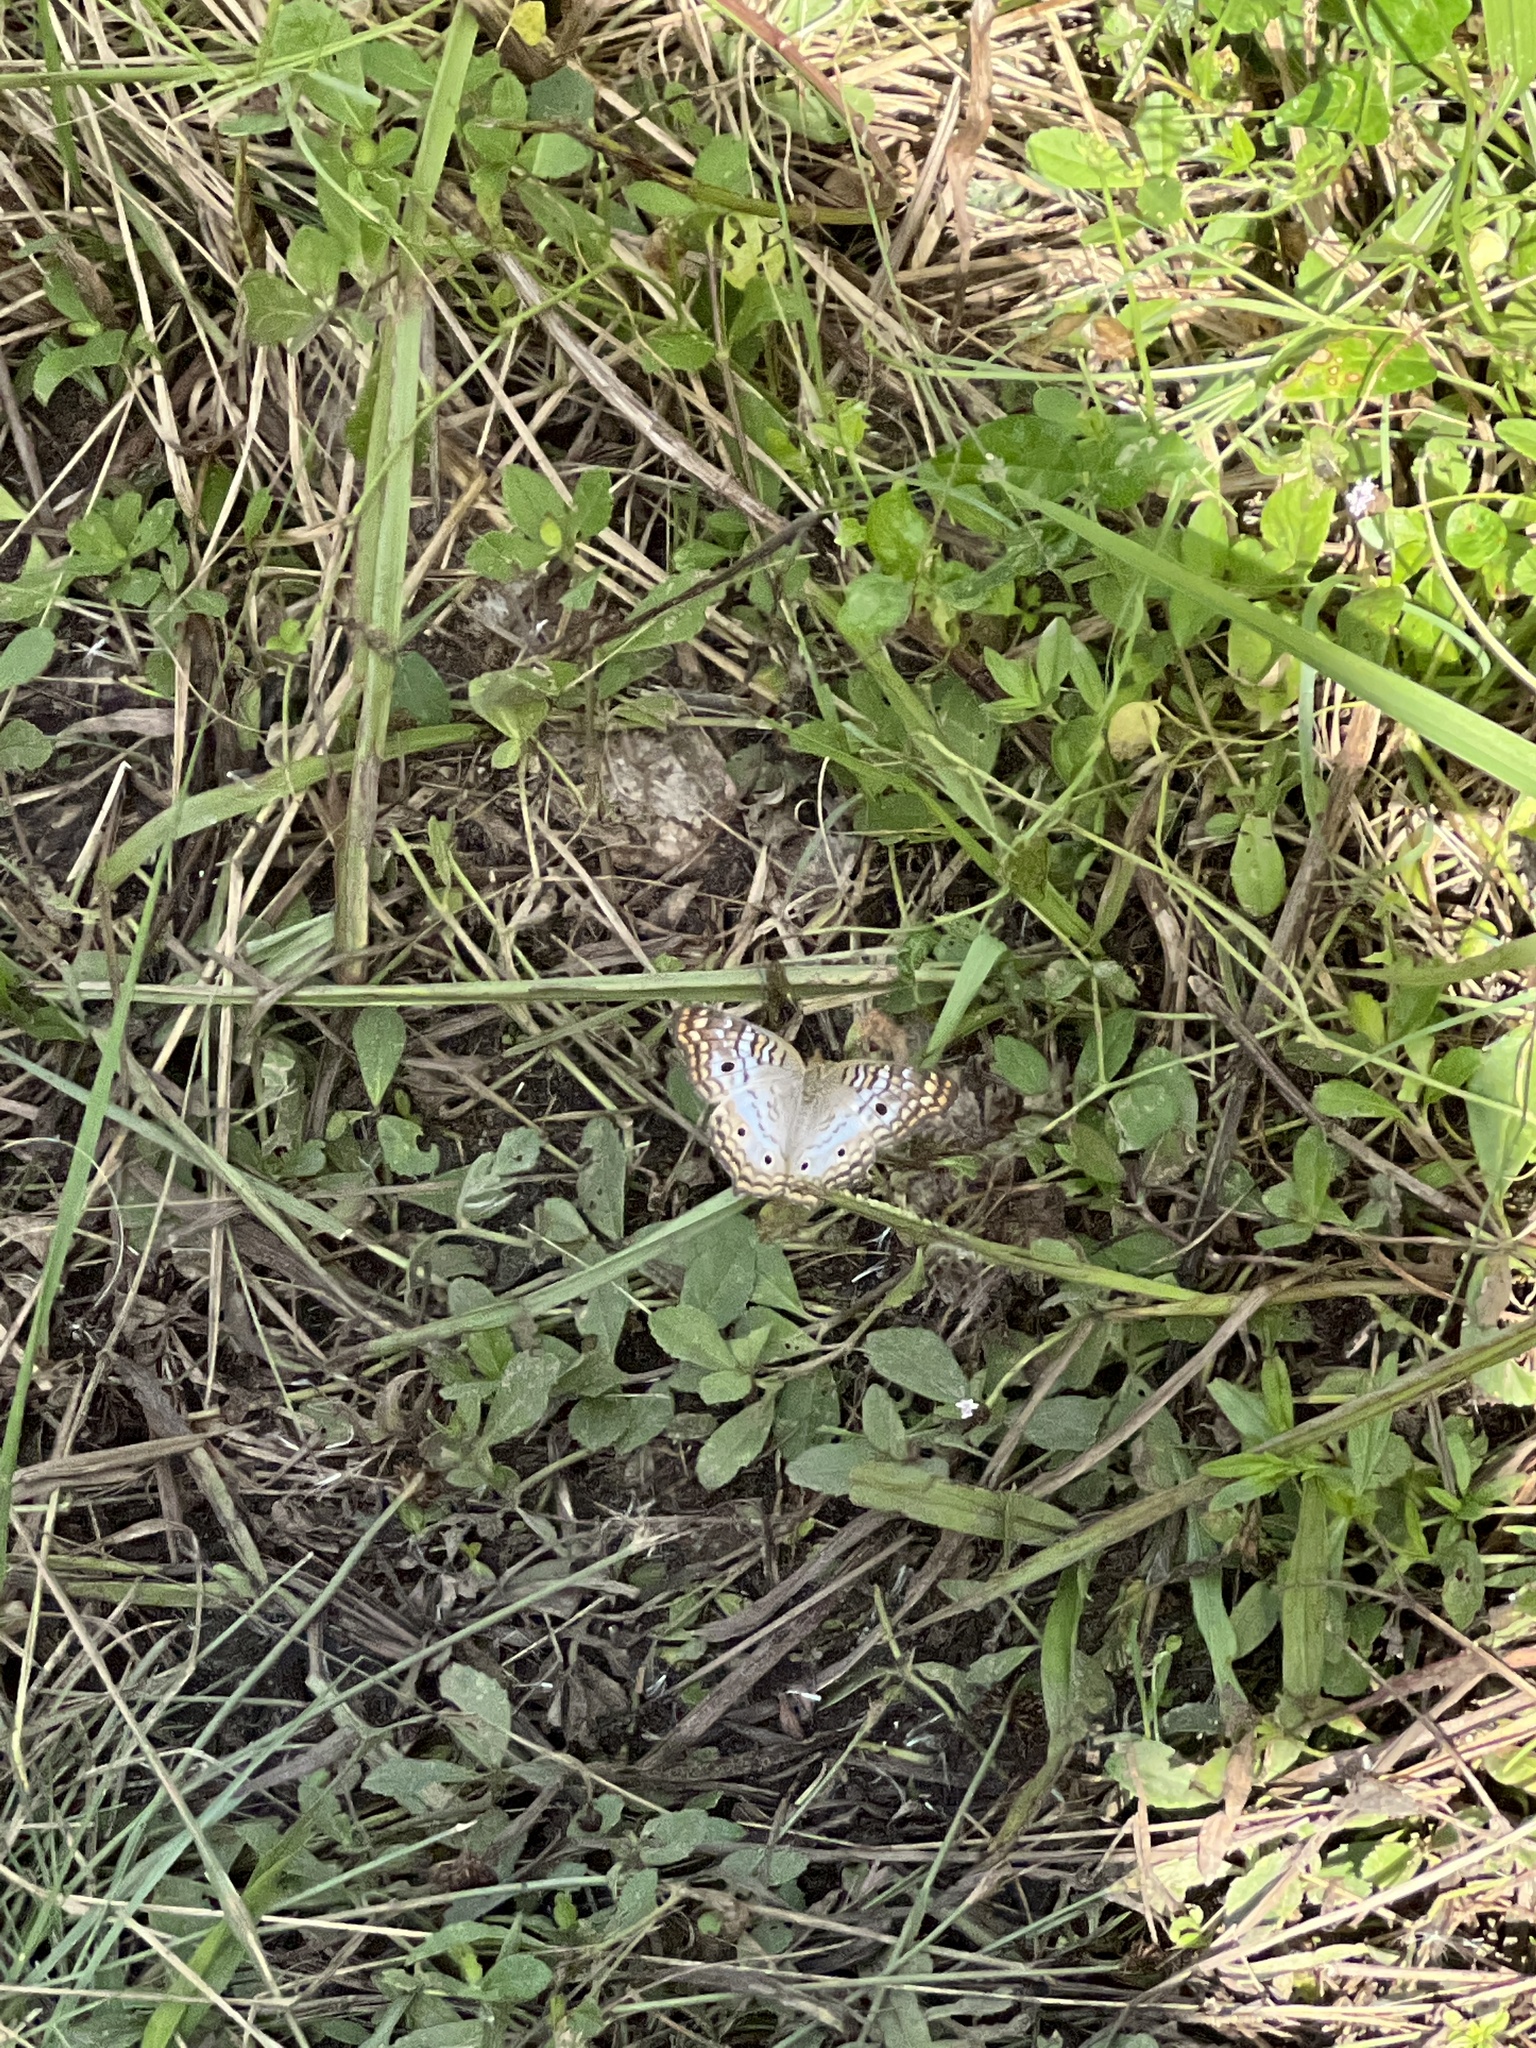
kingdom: Animalia
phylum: Arthropoda
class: Insecta
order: Lepidoptera
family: Nymphalidae
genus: Anartia
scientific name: Anartia jatrophae
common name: White peacock
